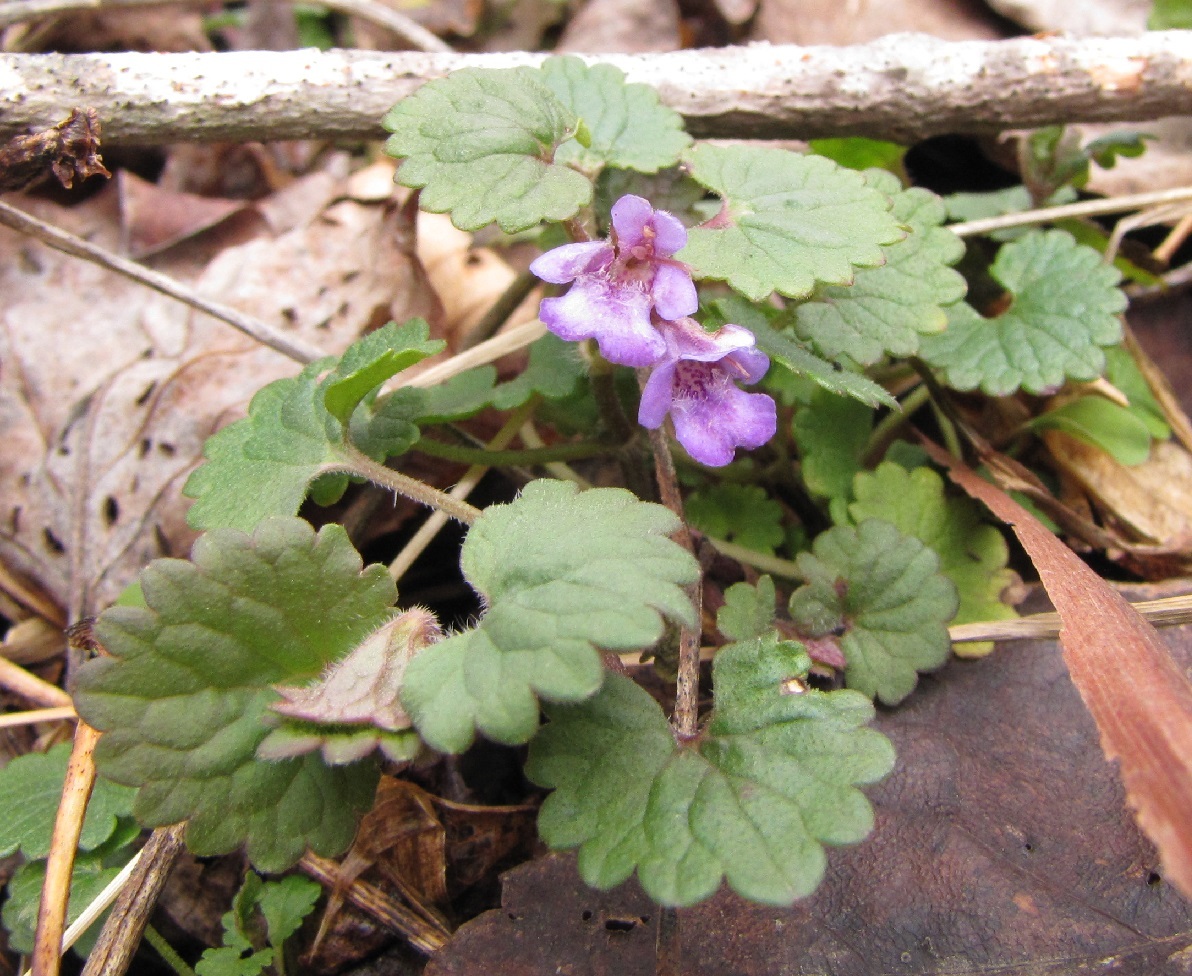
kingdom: Plantae
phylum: Tracheophyta
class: Magnoliopsida
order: Lamiales
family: Lamiaceae
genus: Glechoma
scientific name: Glechoma hederacea
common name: Ground ivy
